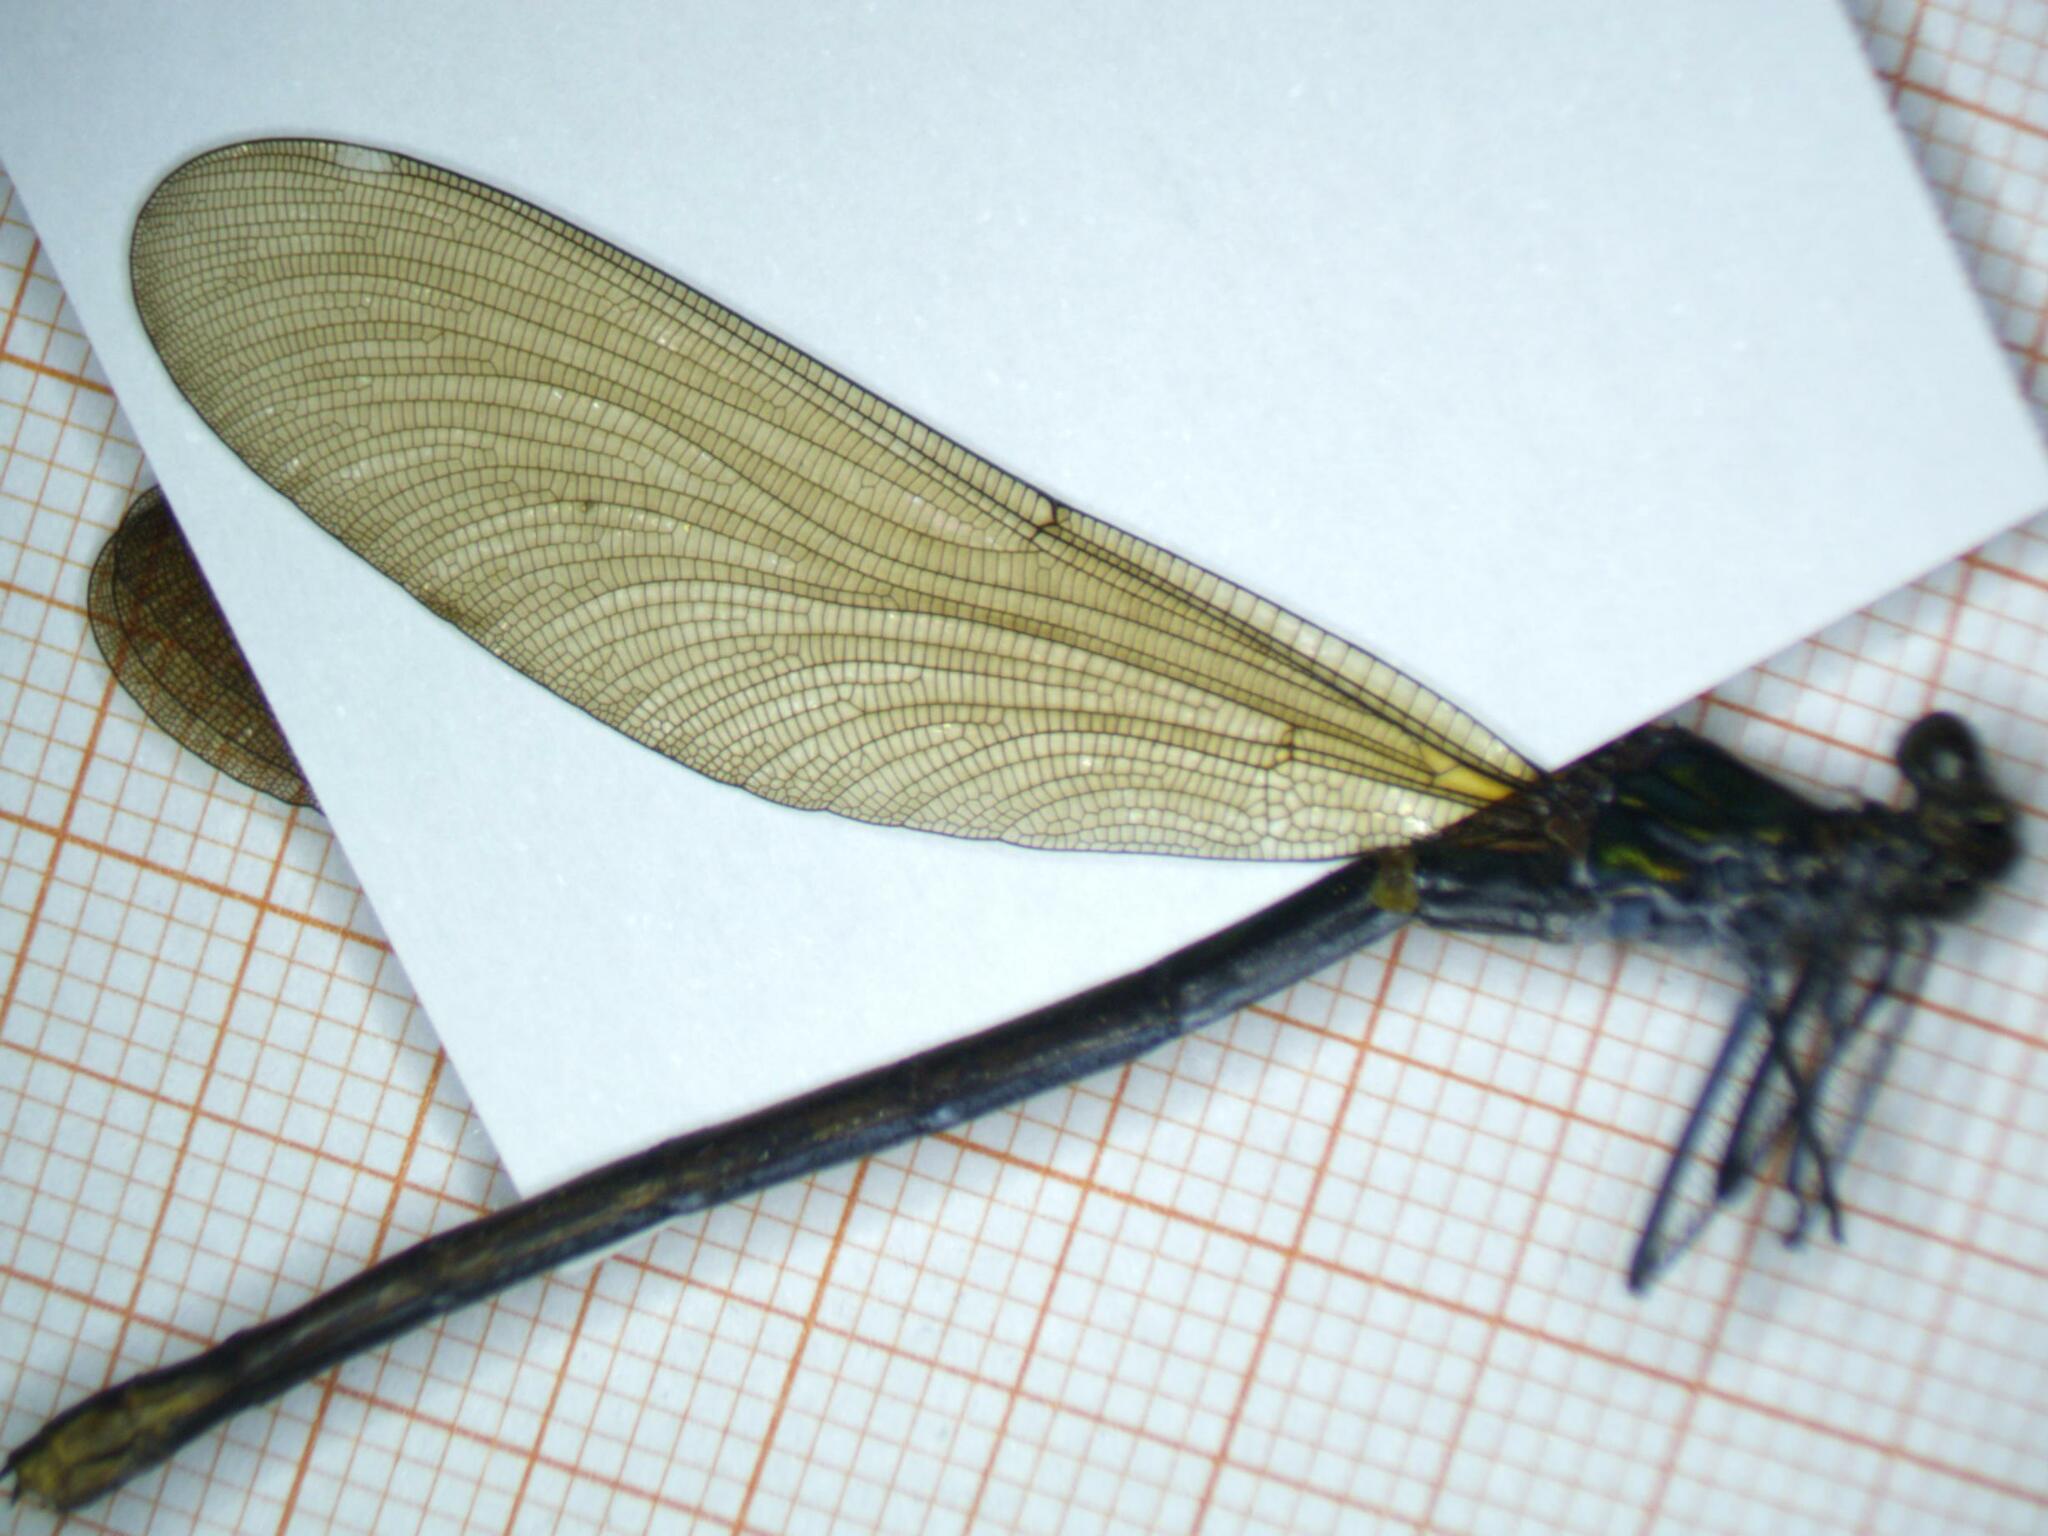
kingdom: Animalia
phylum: Arthropoda
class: Insecta
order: Odonata
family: Calopterygidae
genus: Calopteryx
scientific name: Calopteryx splendens
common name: Banded demoiselle
